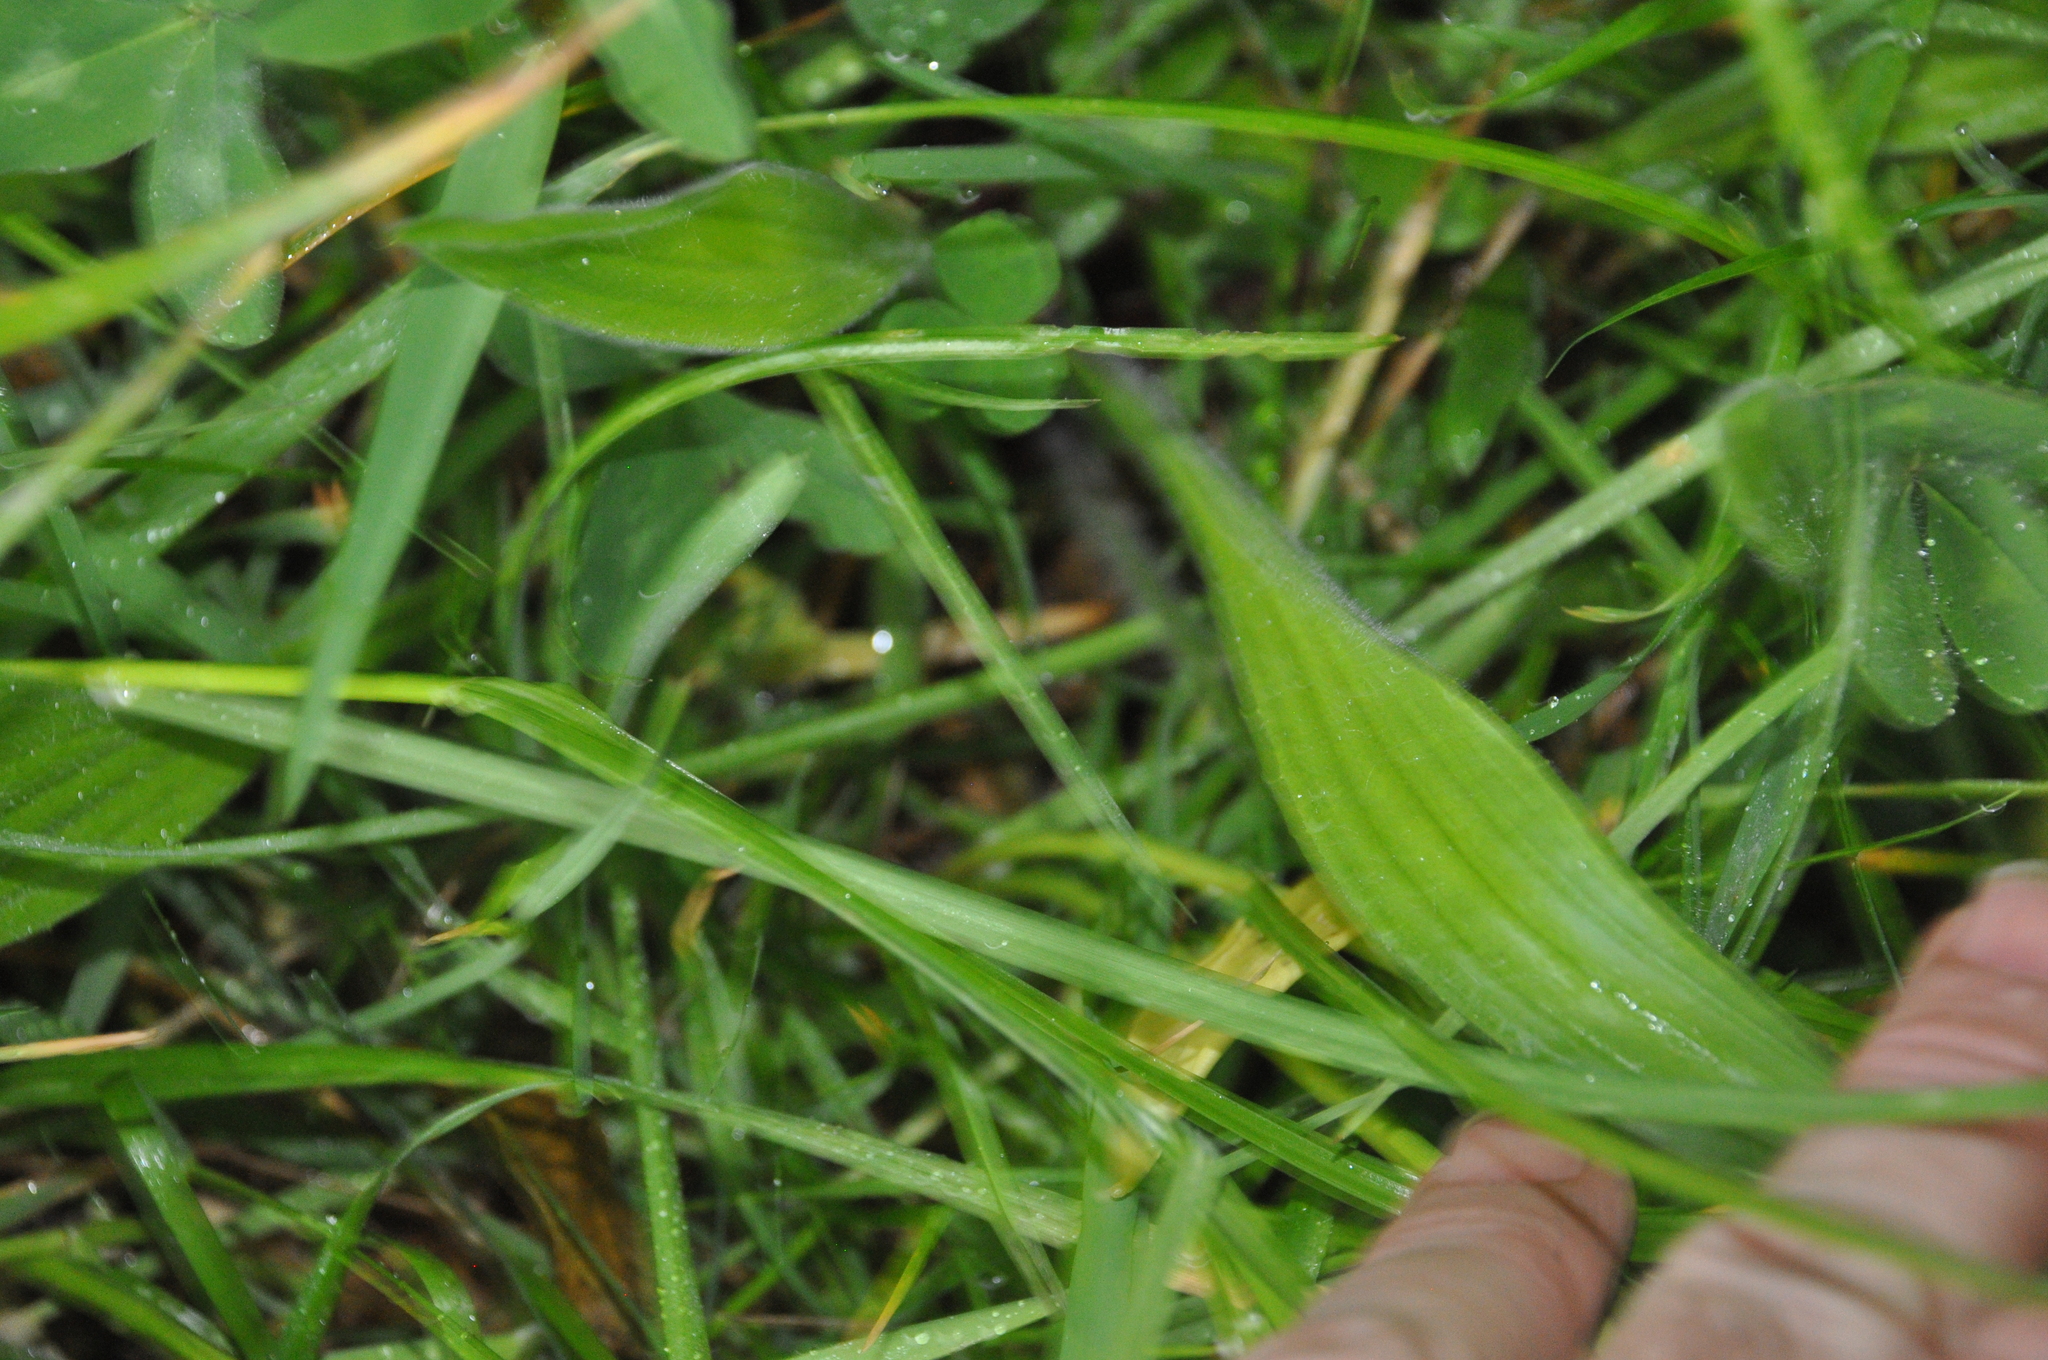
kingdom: Plantae
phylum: Tracheophyta
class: Magnoliopsida
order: Lamiales
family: Plantaginaceae
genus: Plantago
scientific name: Plantago lanceolata
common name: Ribwort plantain
